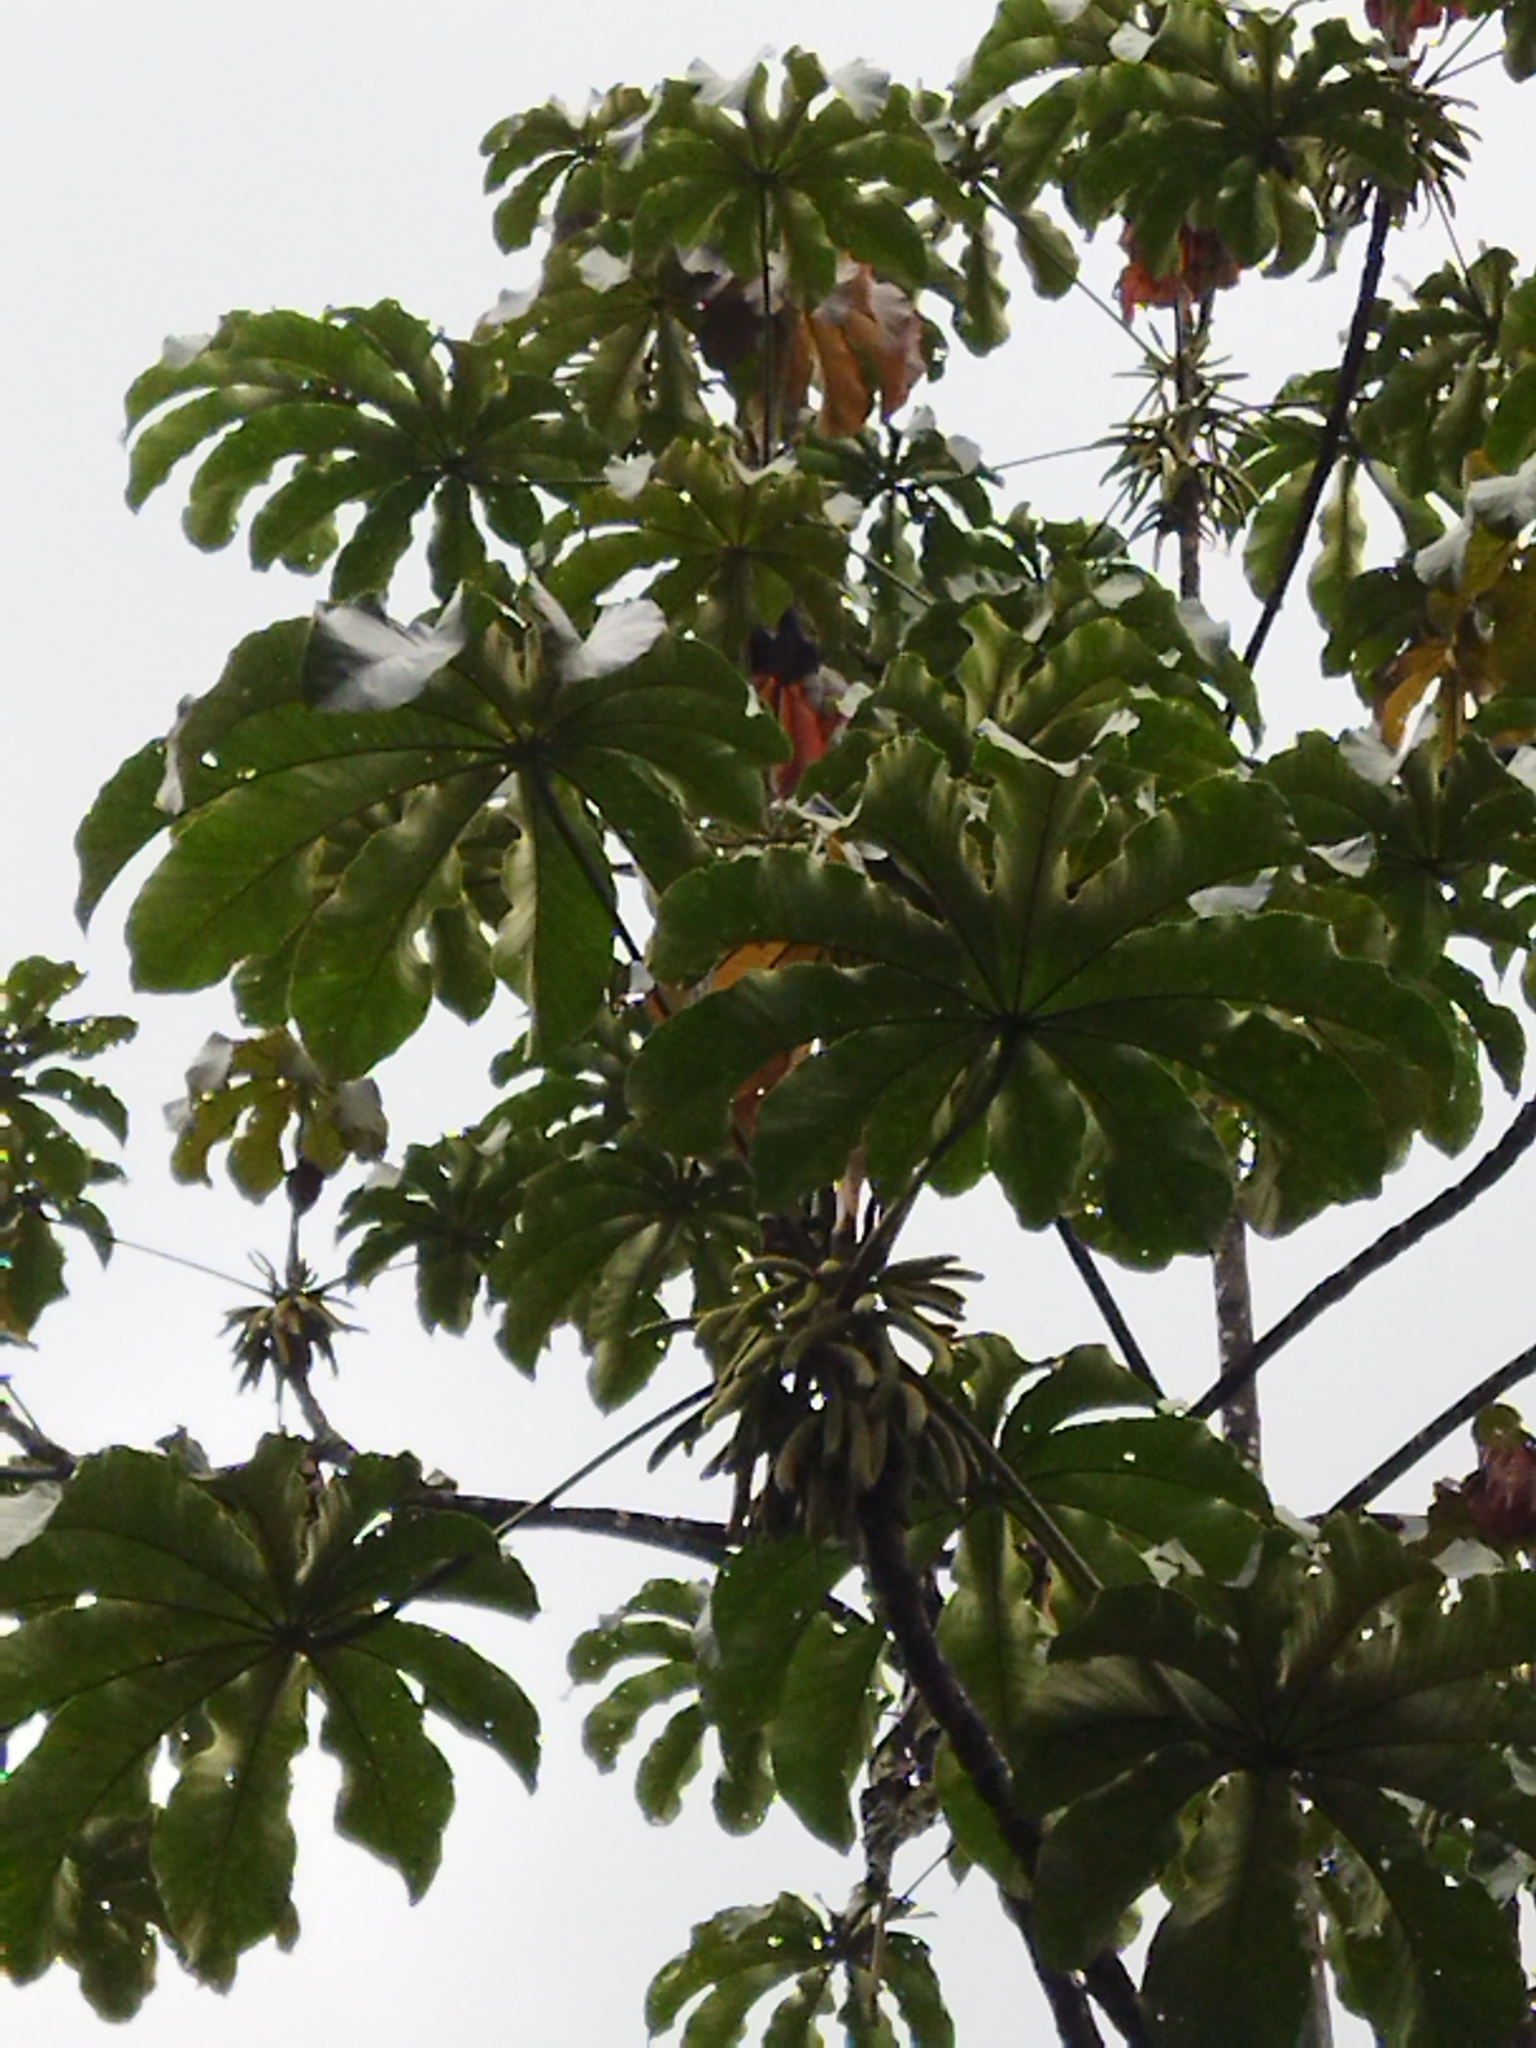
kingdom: Plantae
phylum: Tracheophyta
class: Magnoliopsida
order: Rosales
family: Urticaceae
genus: Cecropia
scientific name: Cecropia angustifolia
